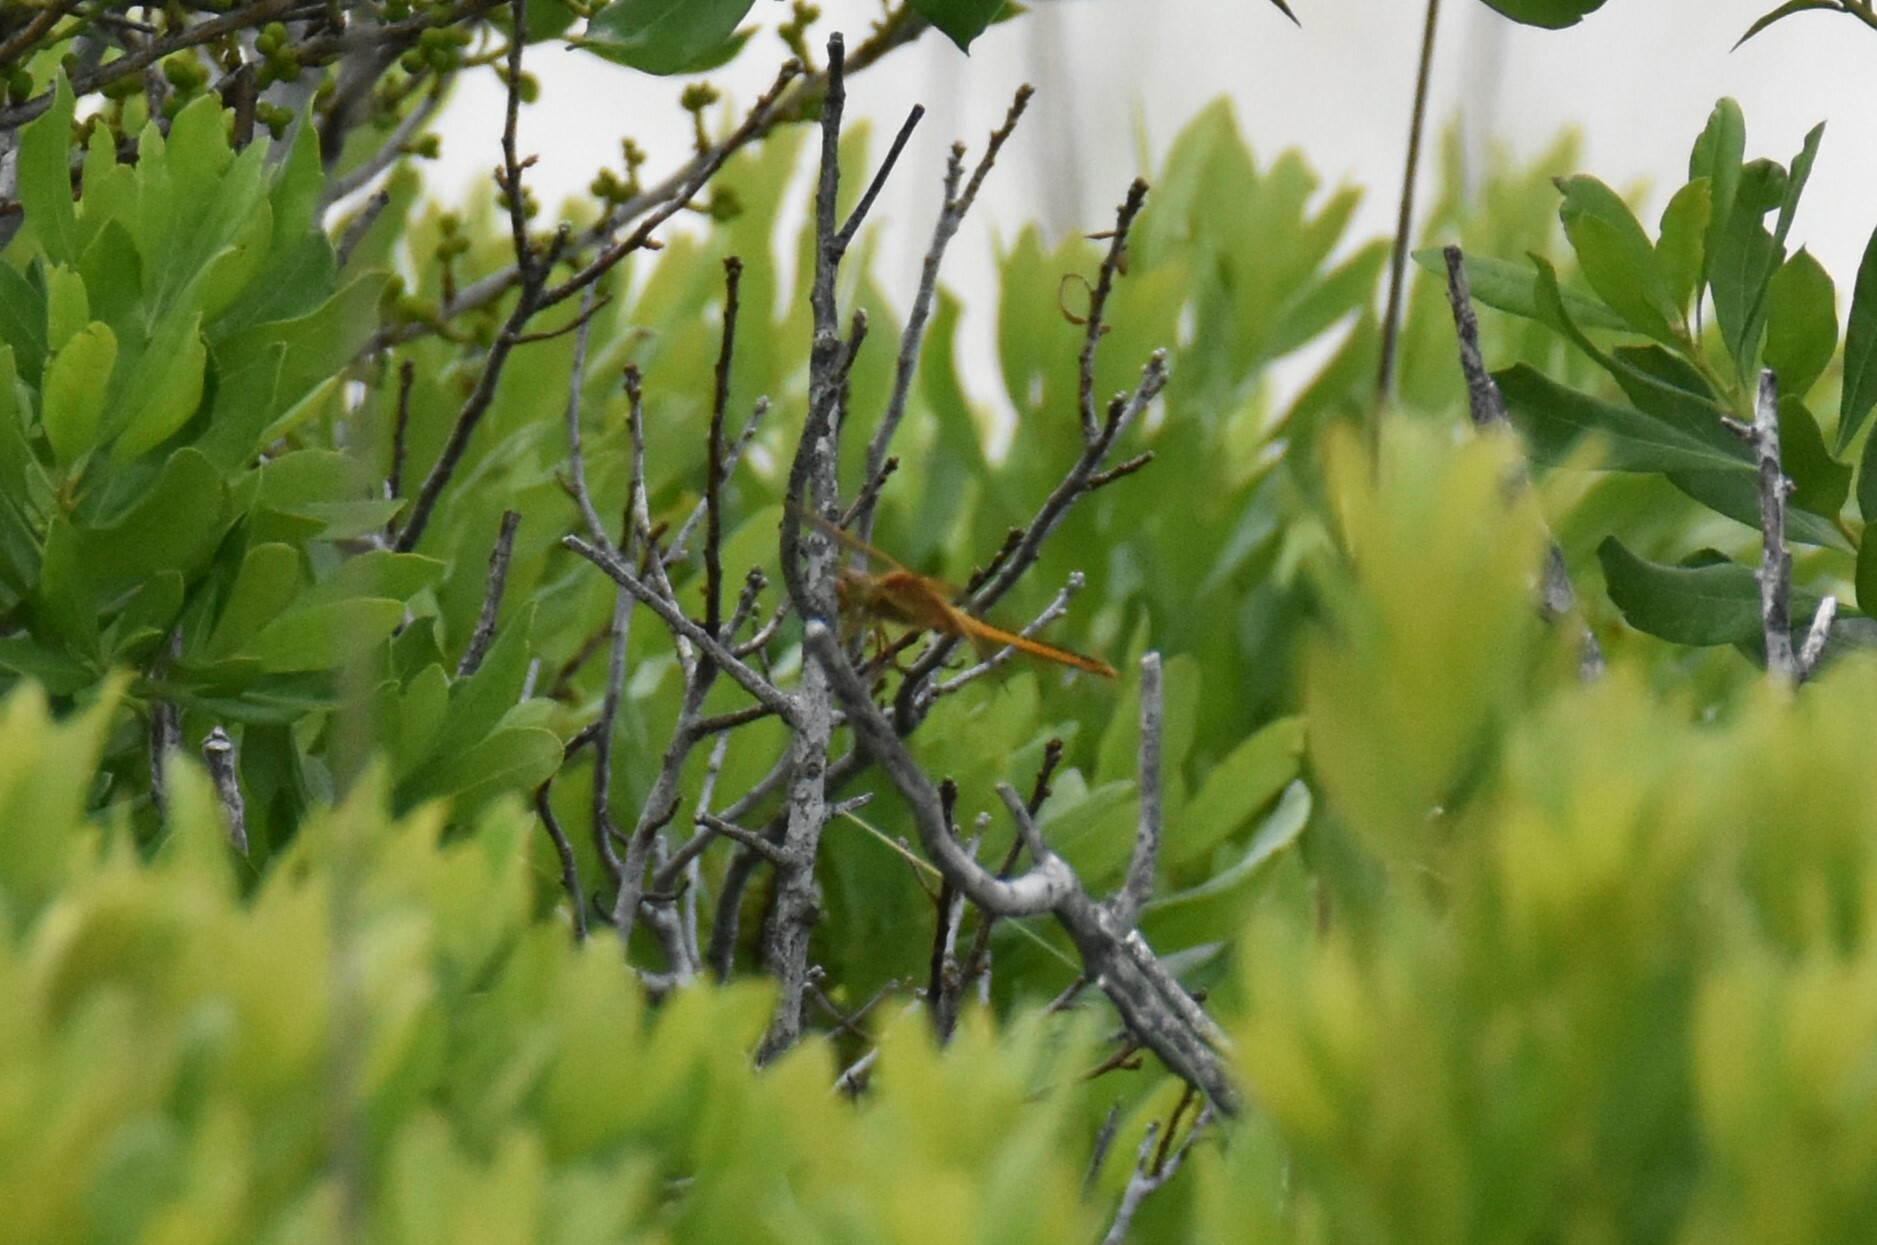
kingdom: Animalia
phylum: Arthropoda
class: Insecta
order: Odonata
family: Libellulidae
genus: Libellula
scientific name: Libellula needhami
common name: Needham's skimmer
